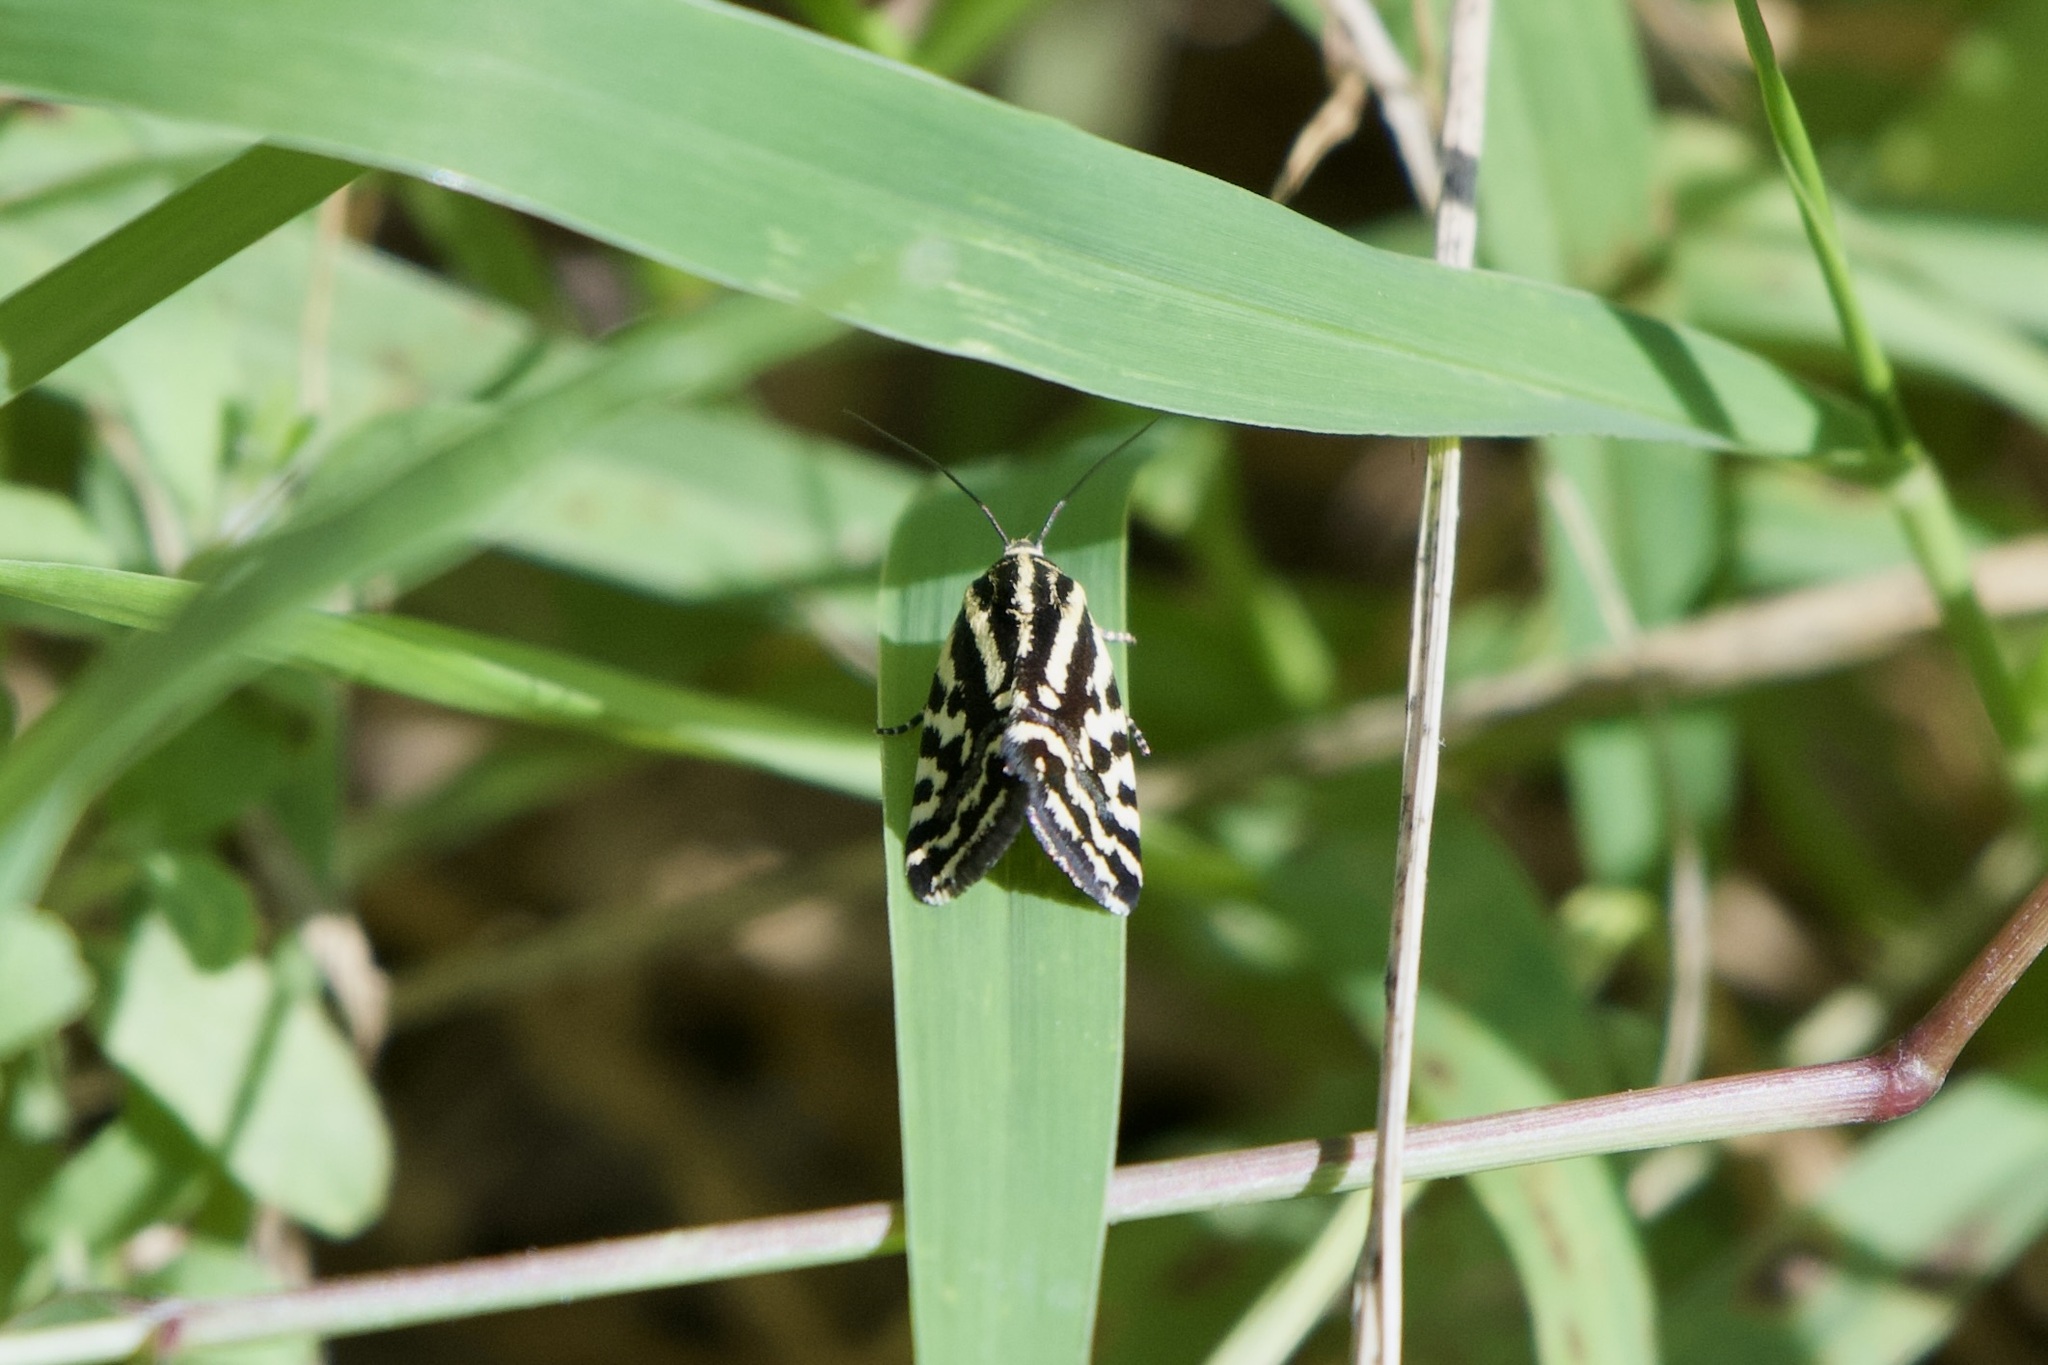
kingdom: Animalia
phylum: Arthropoda
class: Insecta
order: Lepidoptera
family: Noctuidae
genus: Acontia
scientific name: Acontia trabealis
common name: Spotted sulphur
